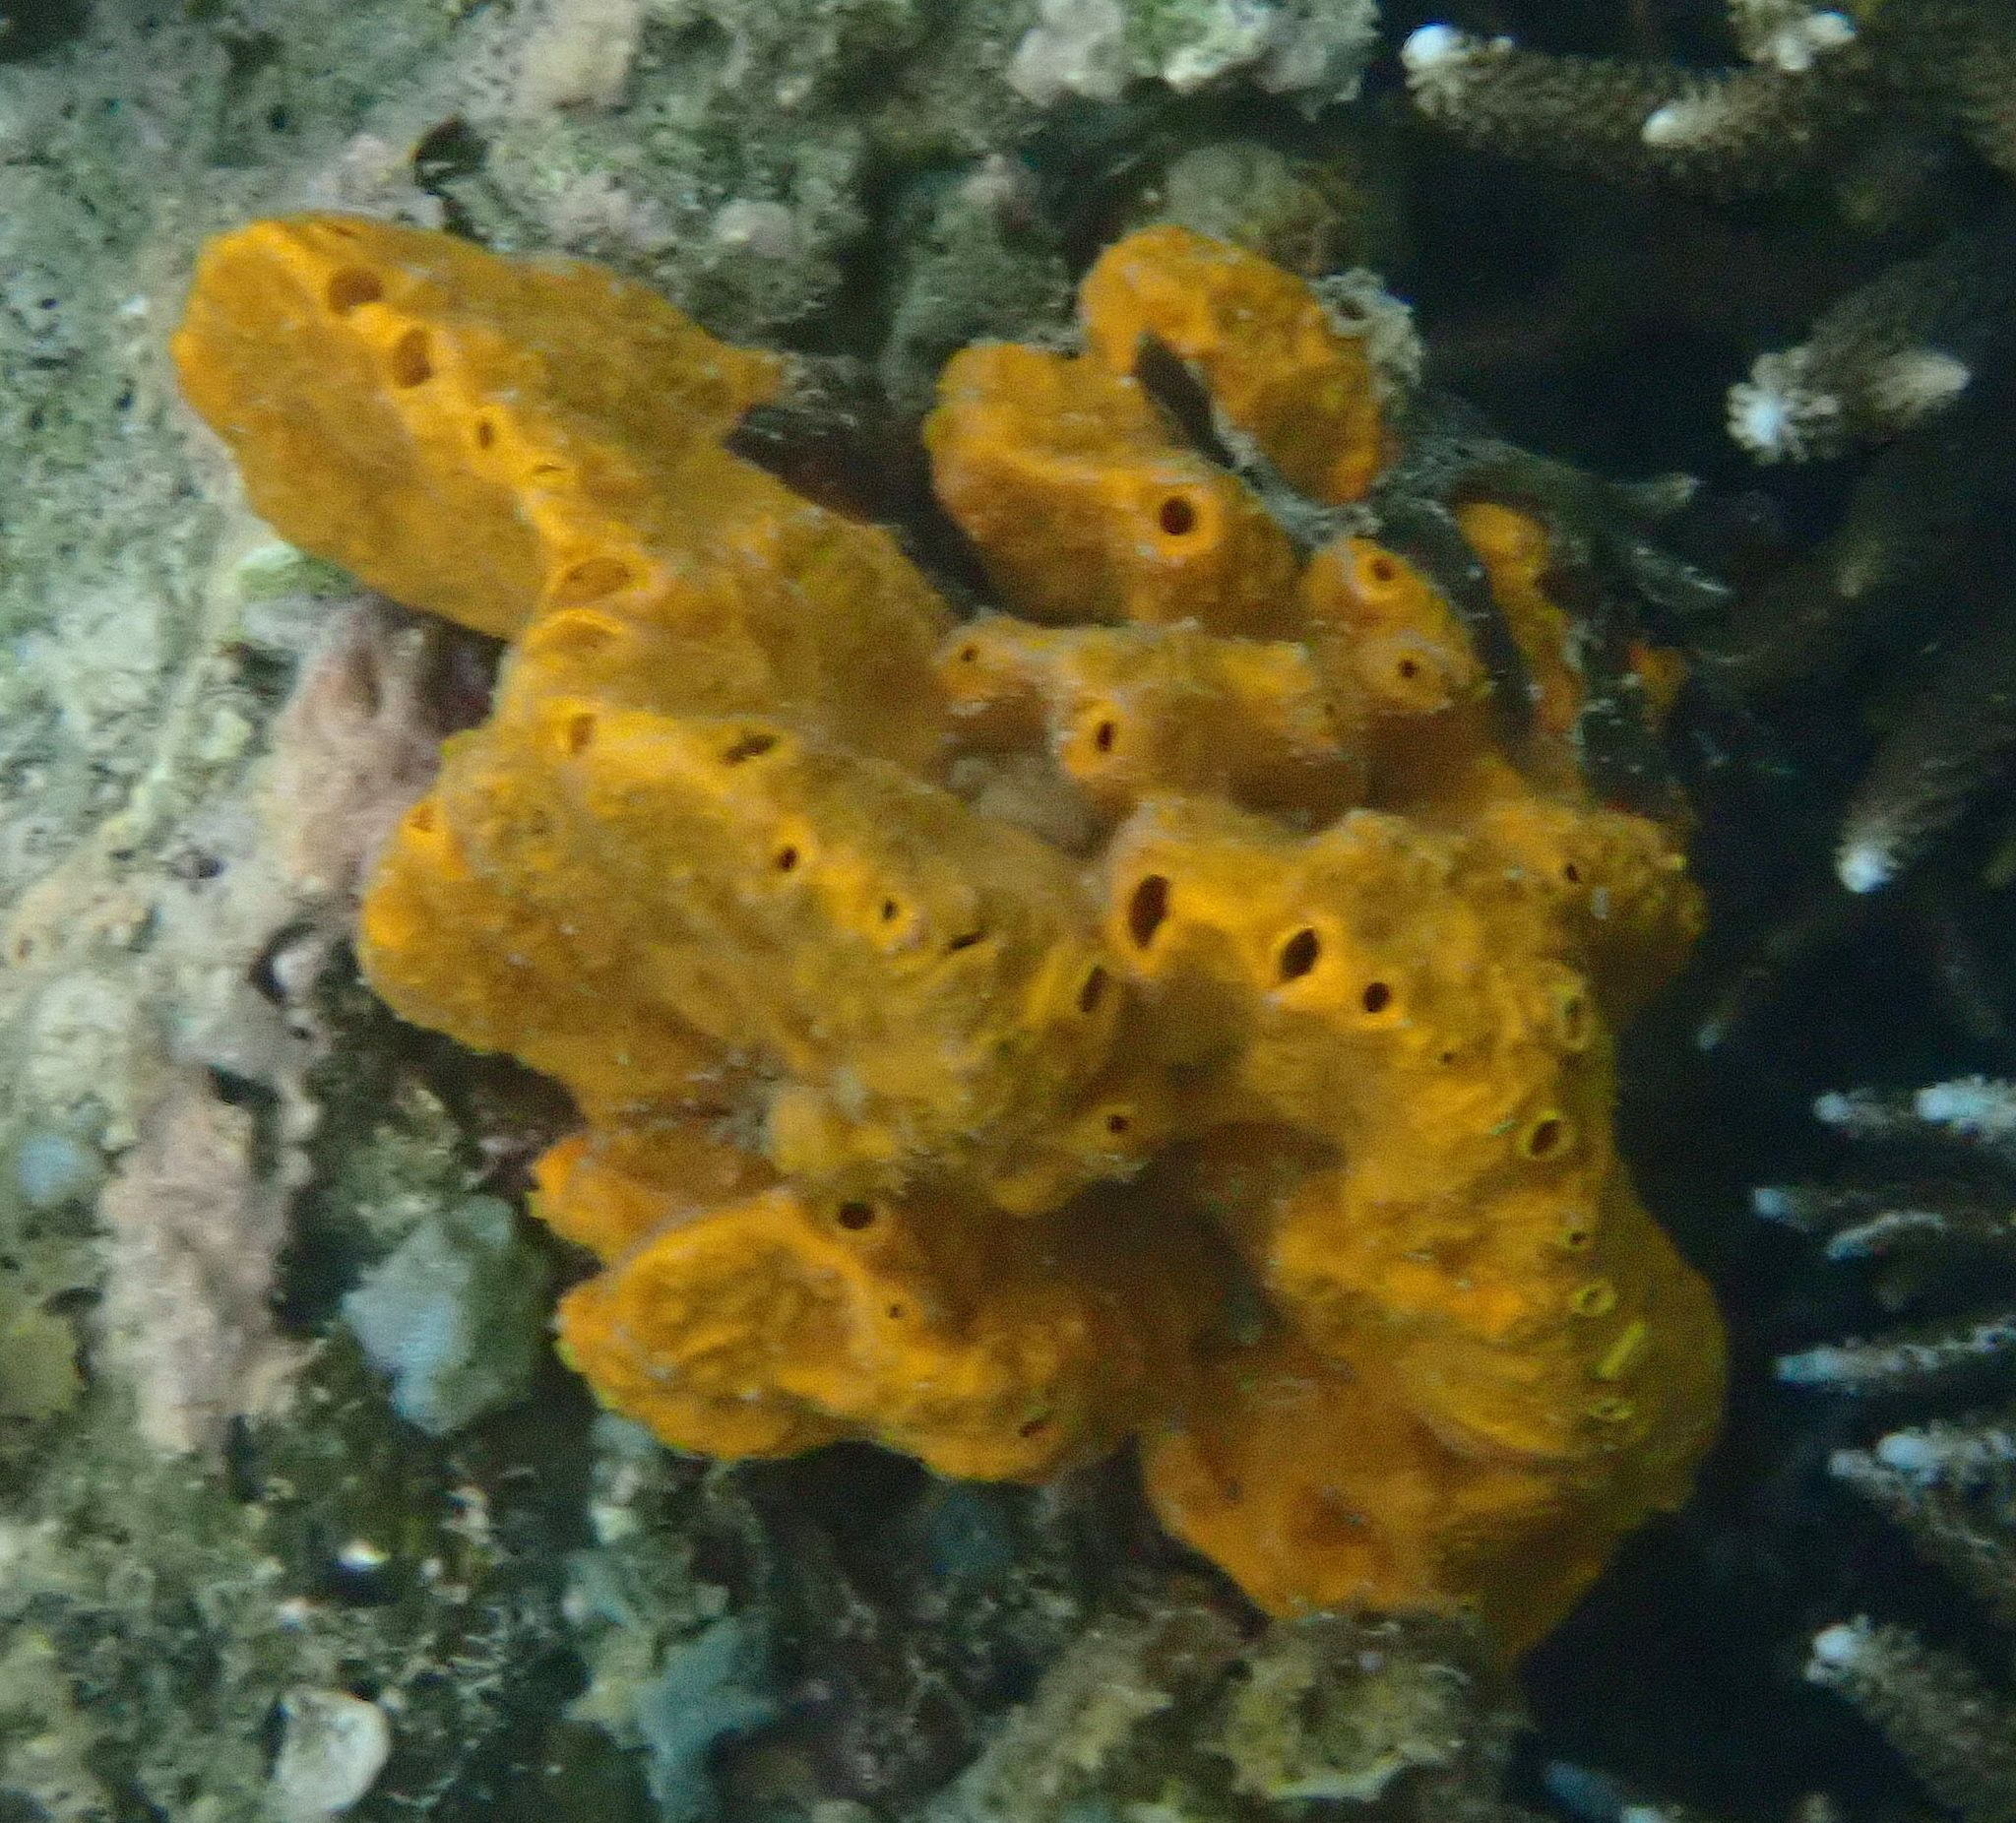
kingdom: Animalia
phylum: Porifera
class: Demospongiae
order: Scopalinida
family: Scopalinidae
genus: Stylissa
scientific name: Stylissa massa
